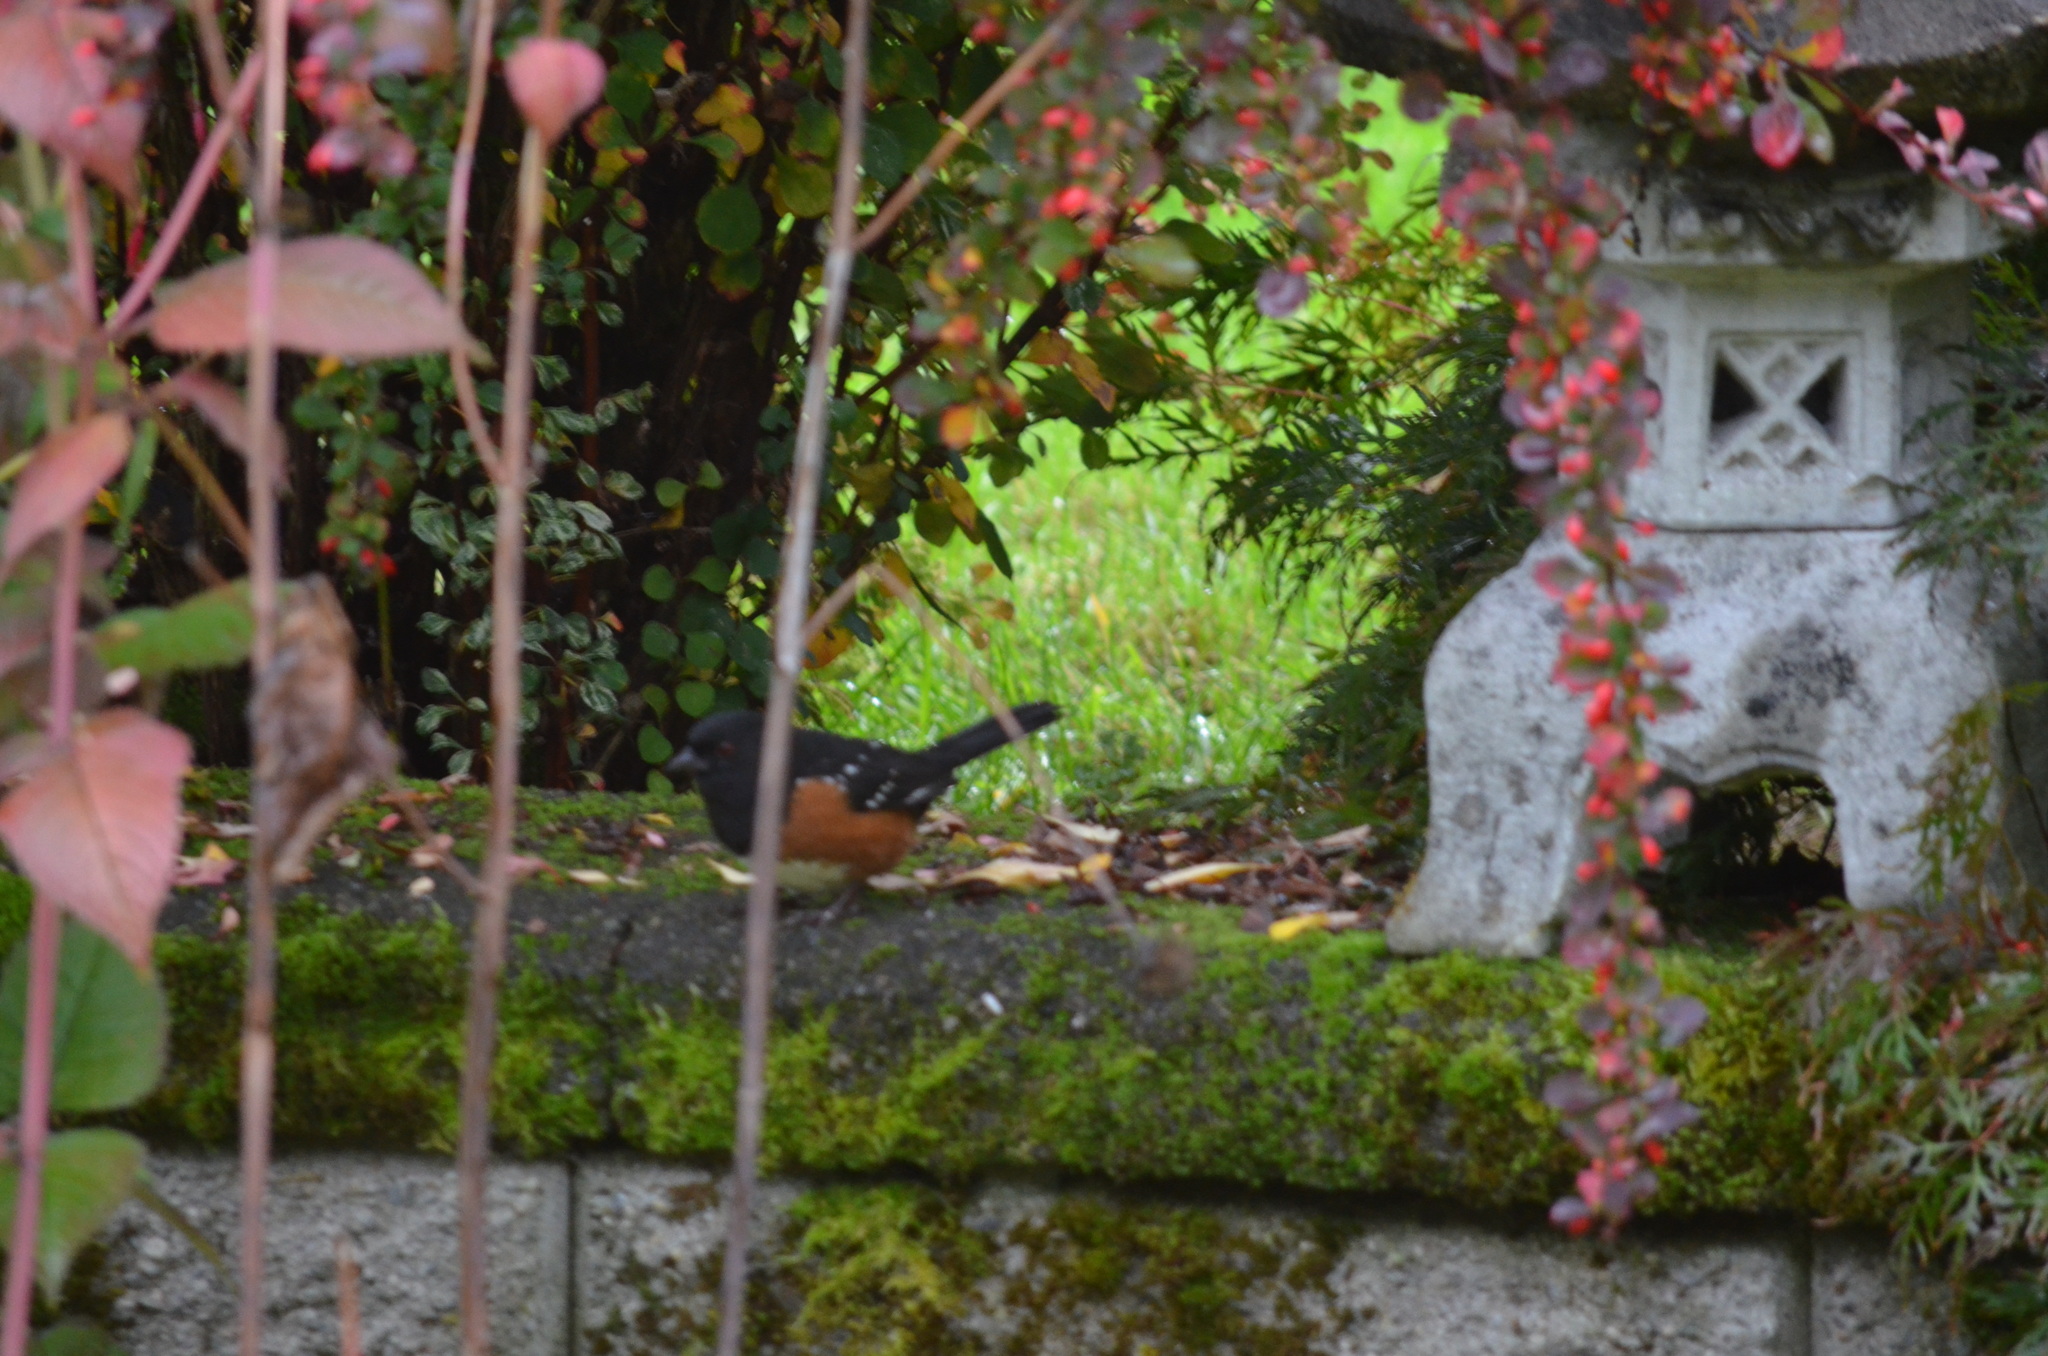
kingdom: Animalia
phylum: Chordata
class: Aves
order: Passeriformes
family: Passerellidae
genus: Pipilo
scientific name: Pipilo maculatus
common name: Spotted towhee
